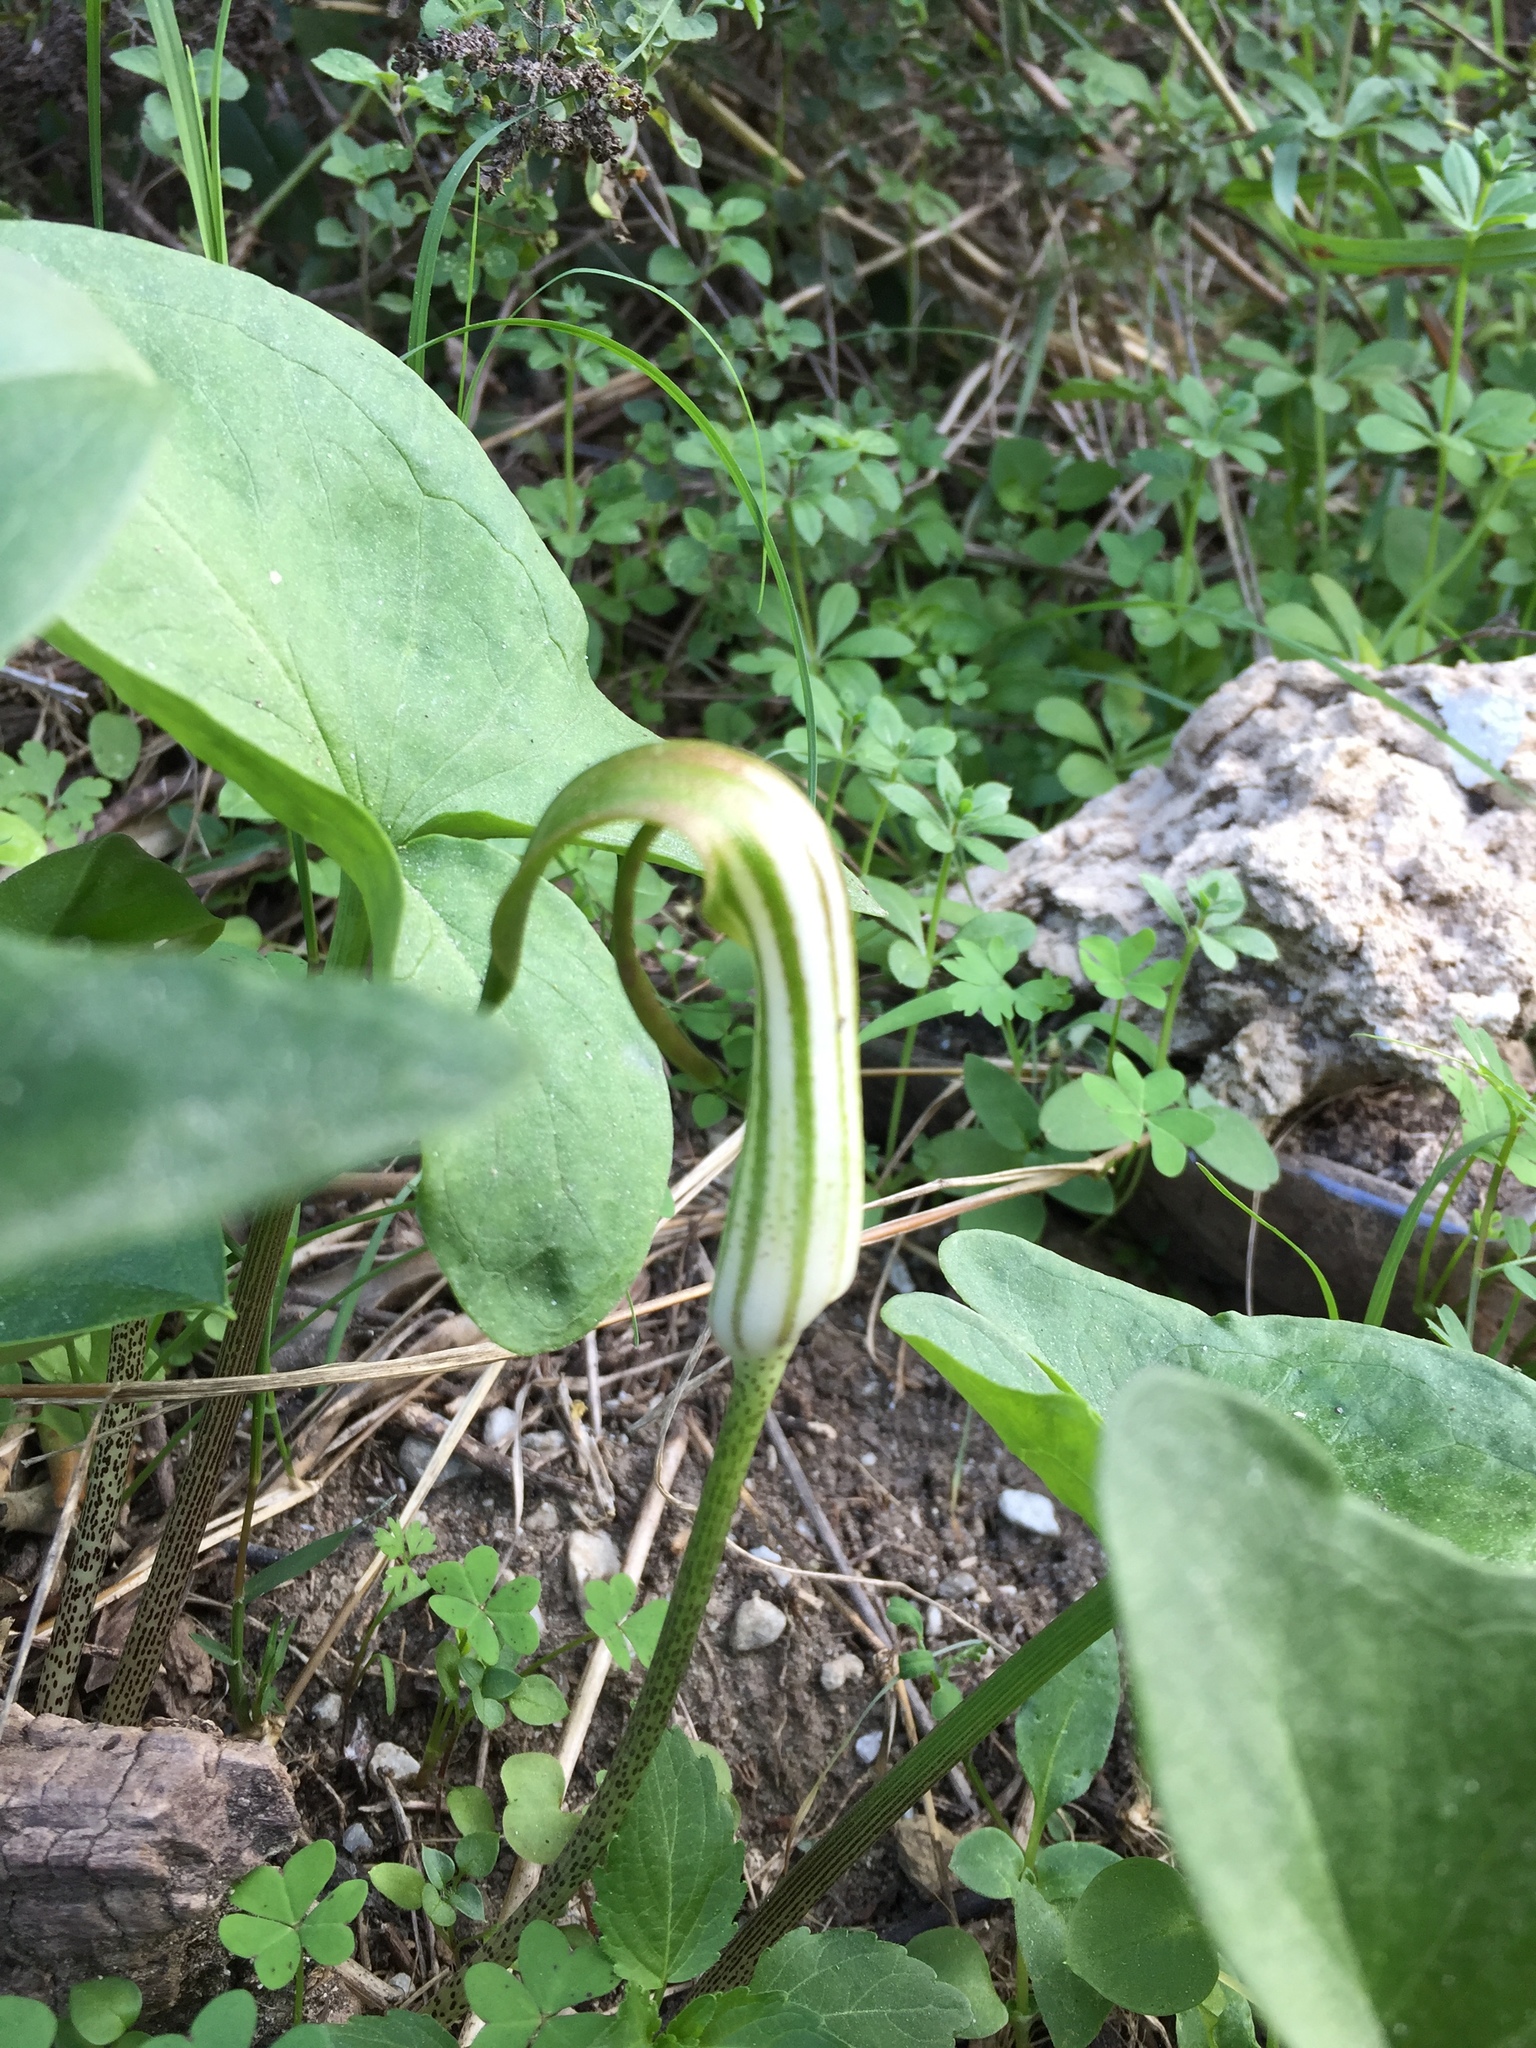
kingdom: Plantae
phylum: Tracheophyta
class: Liliopsida
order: Alismatales
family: Araceae
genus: Arisarum
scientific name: Arisarum vulgare
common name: Common arisarum
